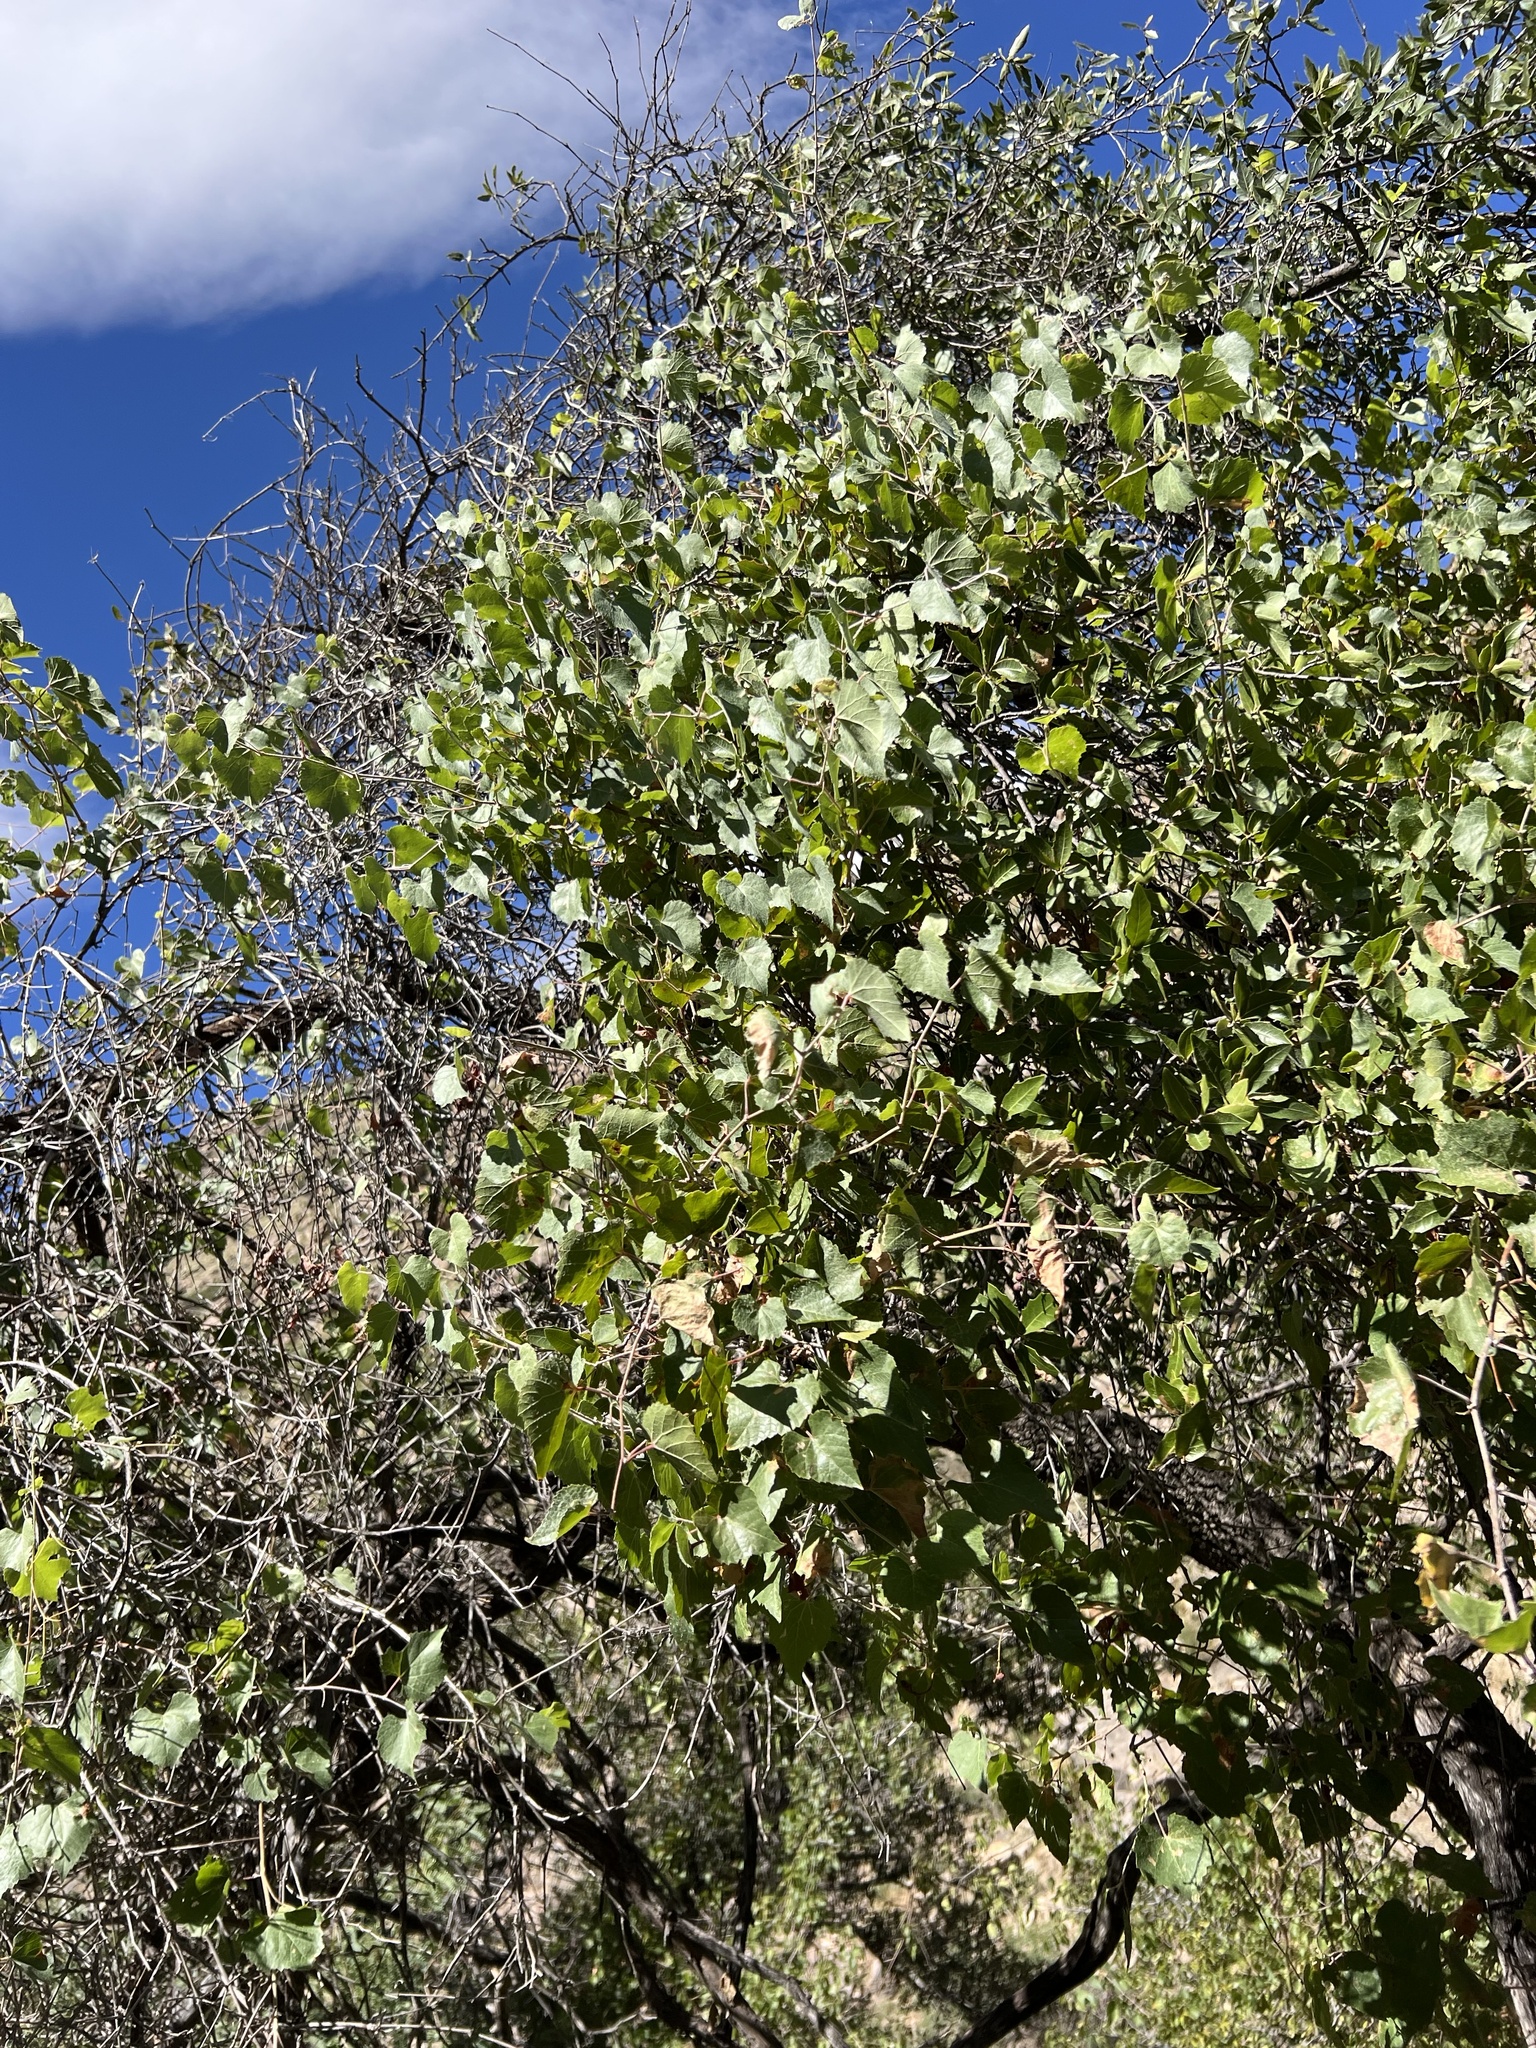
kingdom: Plantae
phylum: Tracheophyta
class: Magnoliopsida
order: Vitales
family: Vitaceae
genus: Vitis
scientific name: Vitis arizonica
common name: Canyon grape
